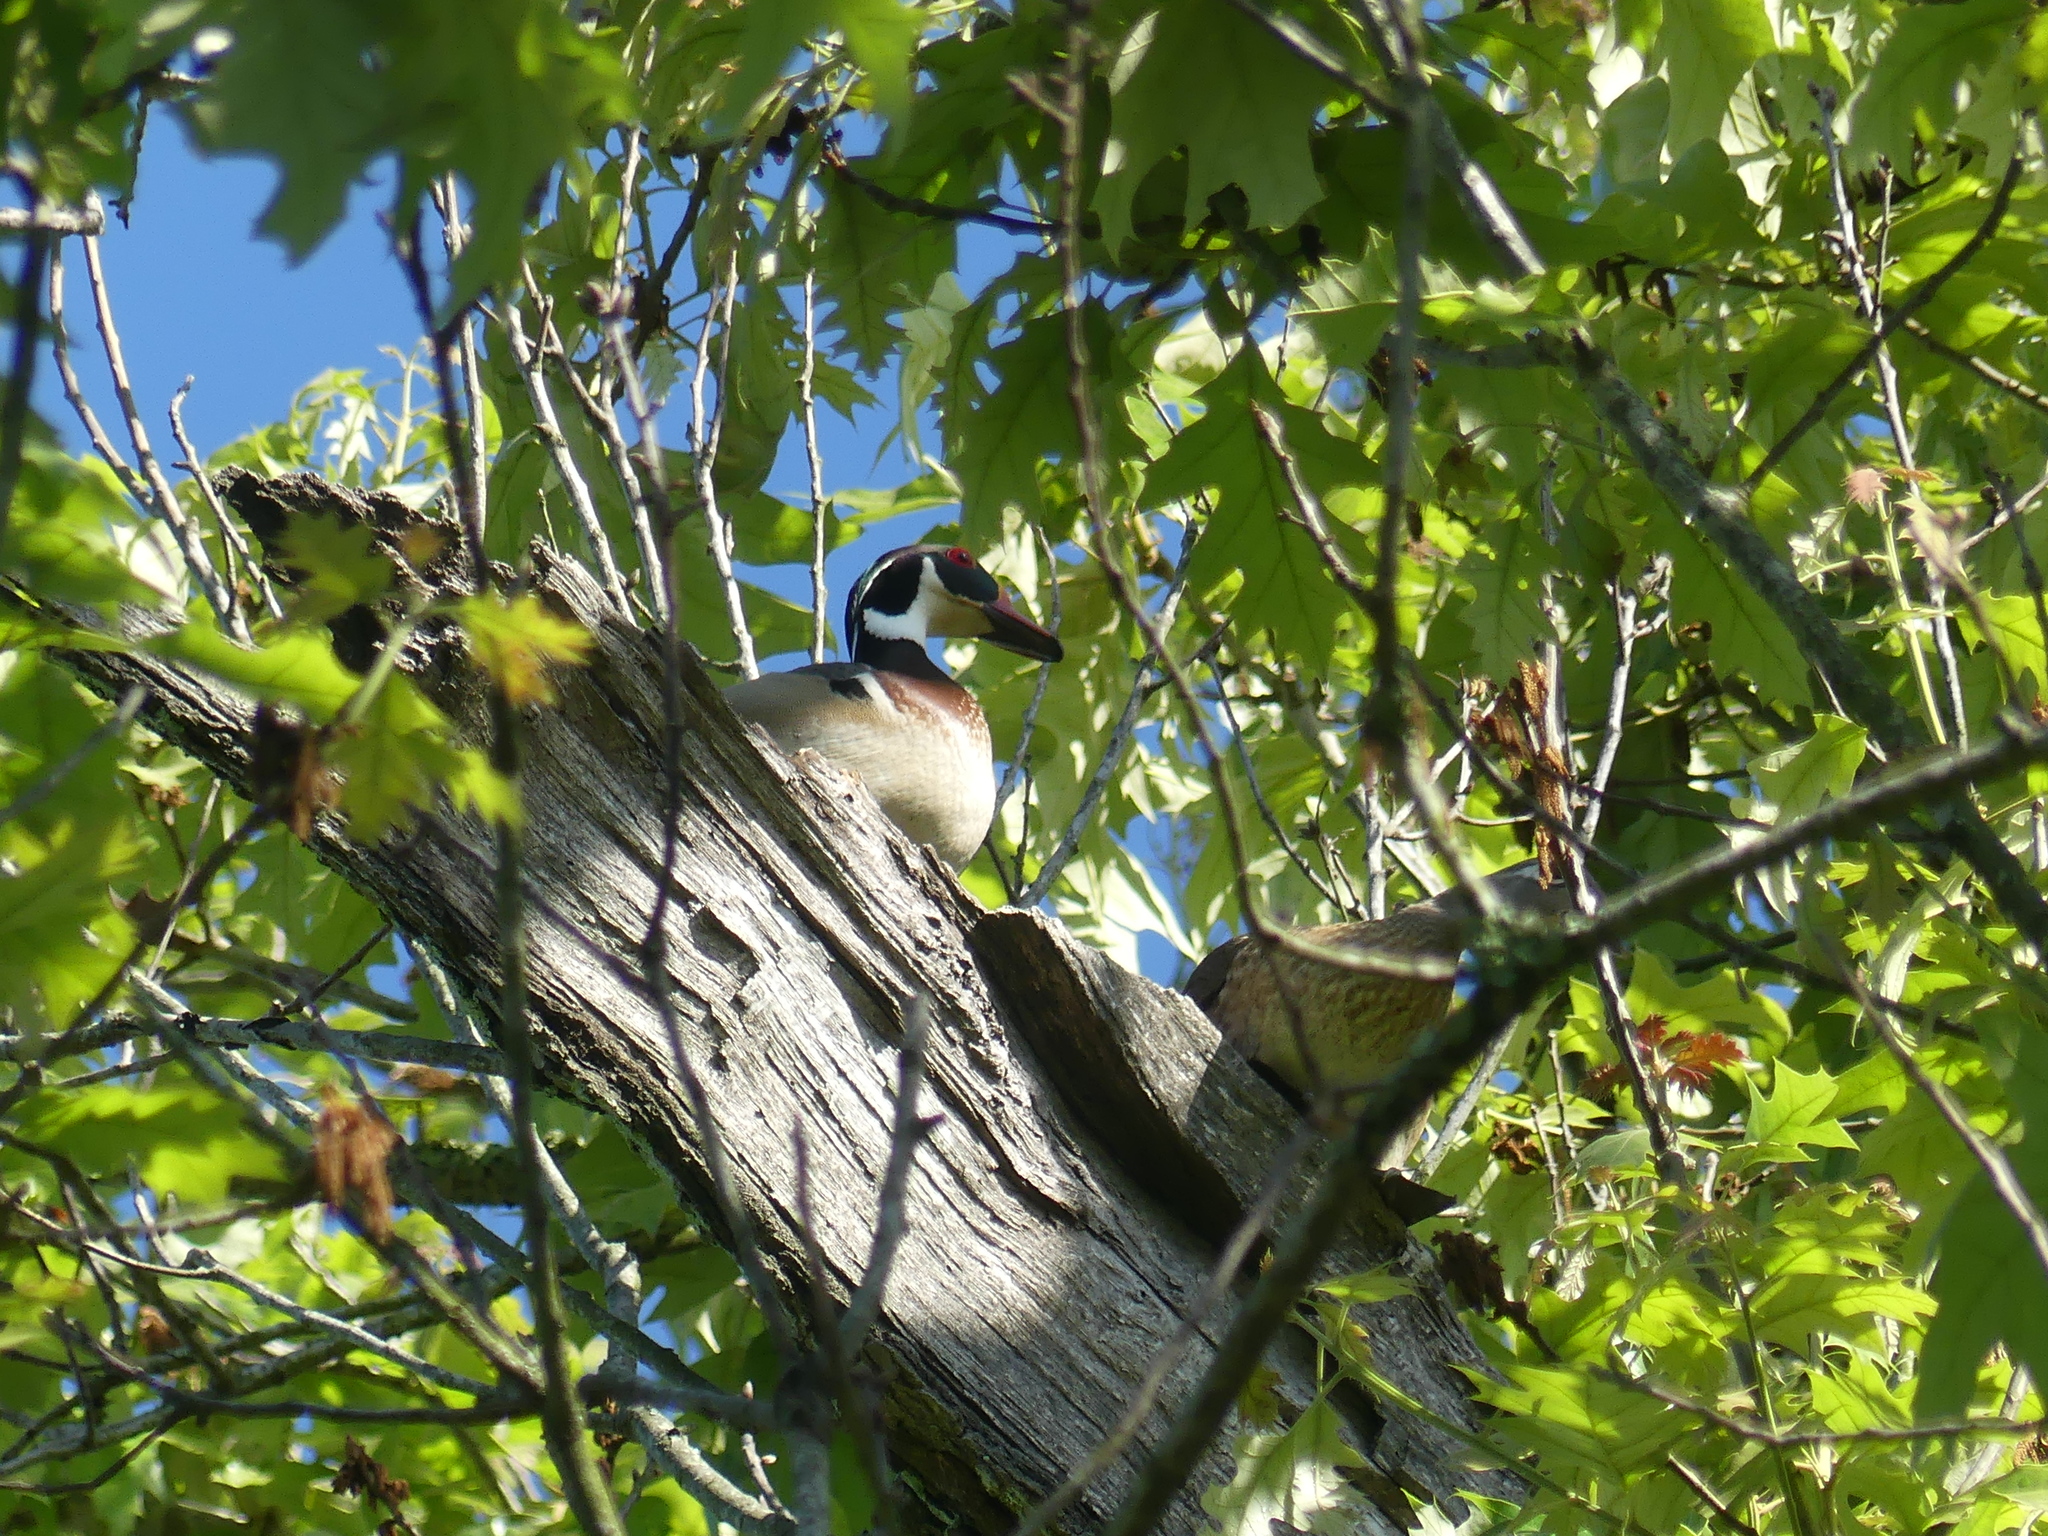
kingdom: Animalia
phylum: Chordata
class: Aves
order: Anseriformes
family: Anatidae
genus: Aix
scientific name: Aix sponsa
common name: Wood duck
